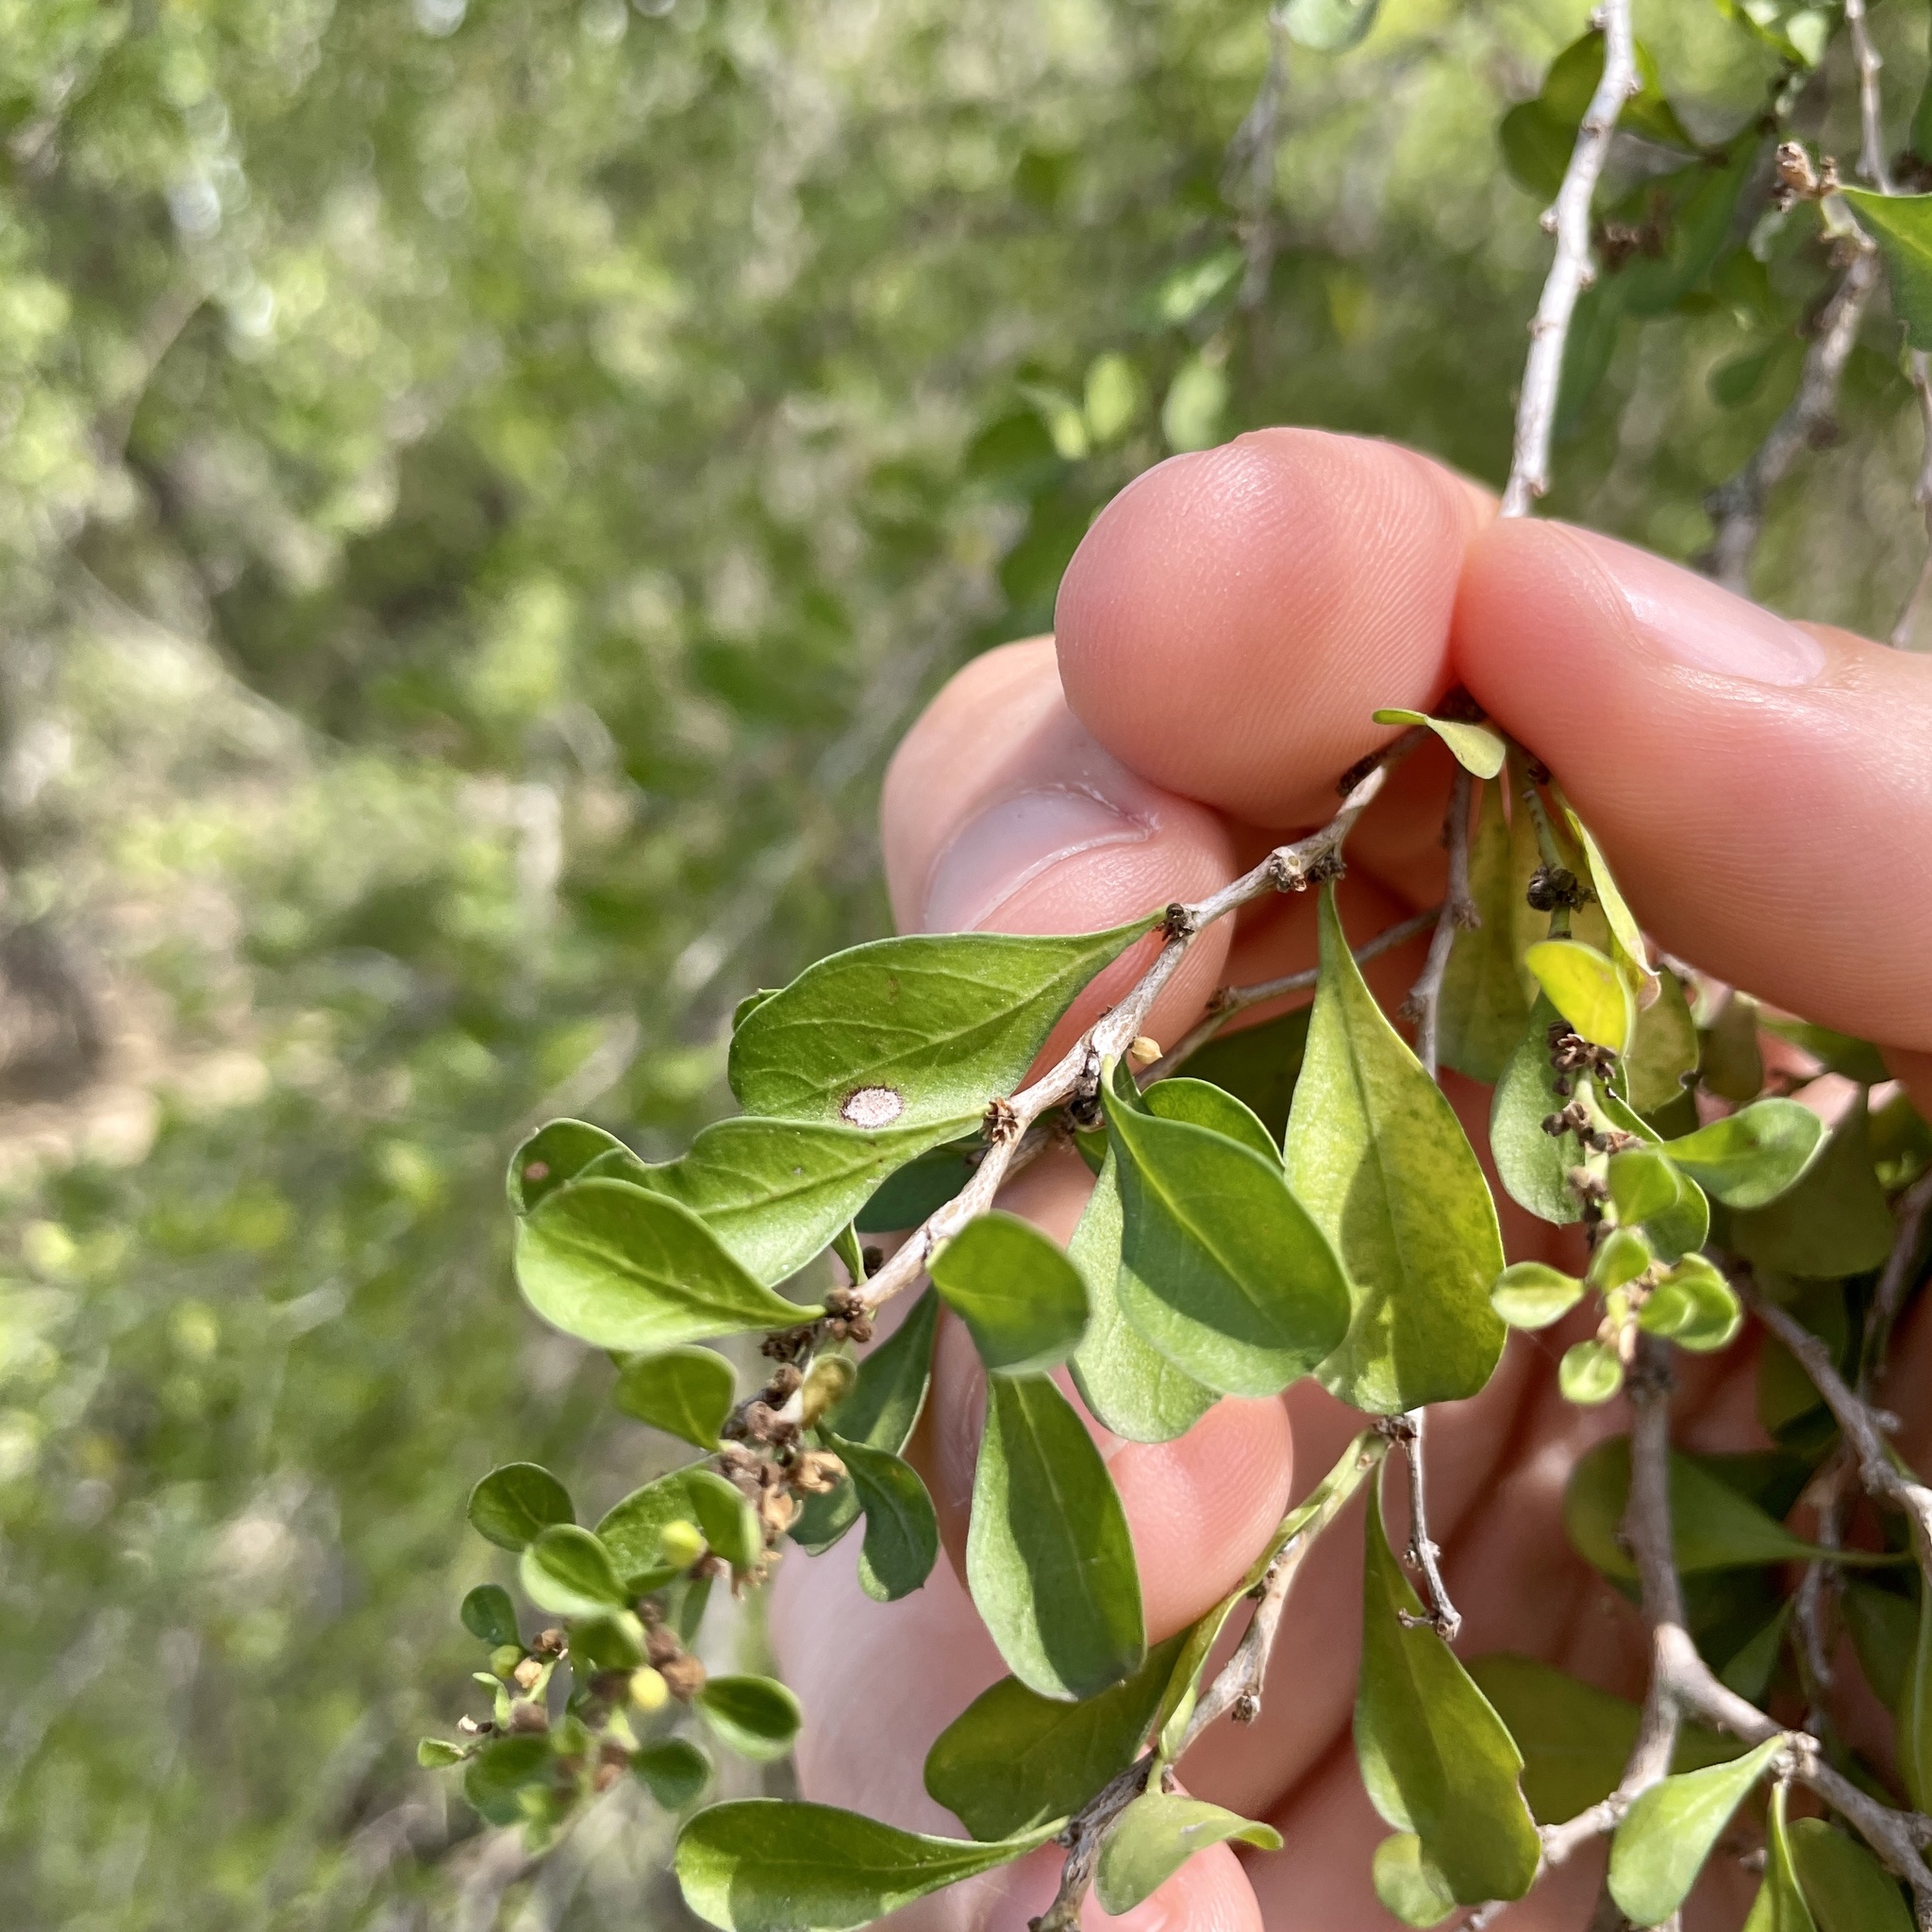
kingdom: Plantae
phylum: Tracheophyta
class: Magnoliopsida
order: Rosales
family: Rhamnaceae
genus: Condalia
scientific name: Condalia hookeri
